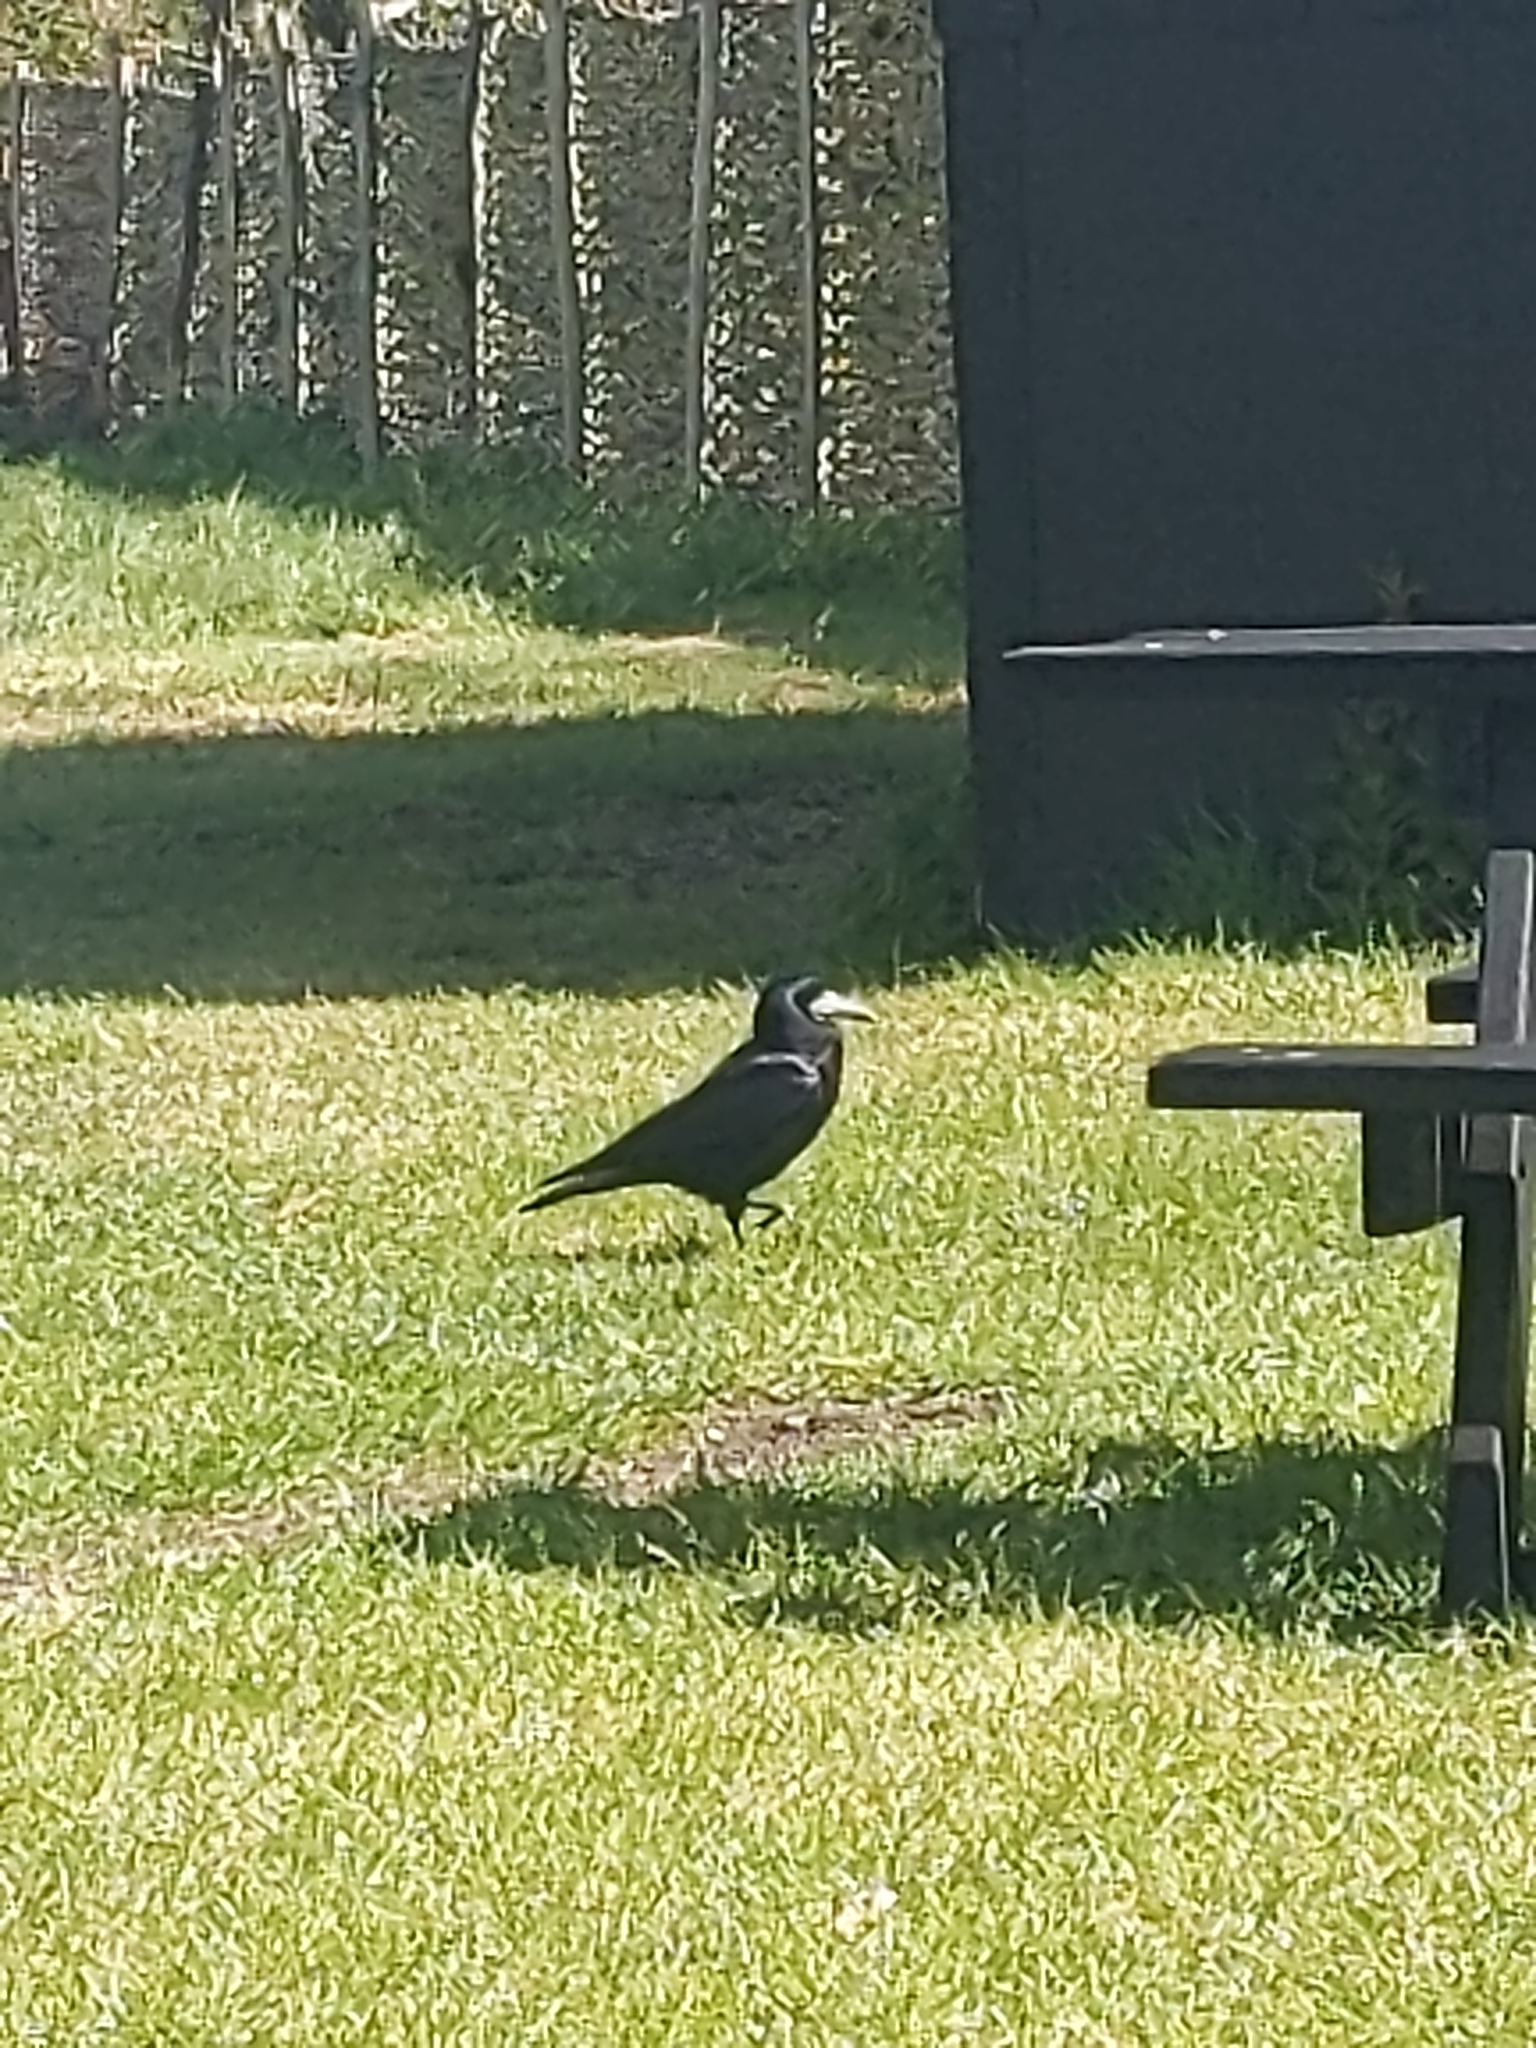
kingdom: Animalia
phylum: Chordata
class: Aves
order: Passeriformes
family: Corvidae
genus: Corvus
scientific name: Corvus frugilegus
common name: Rook
